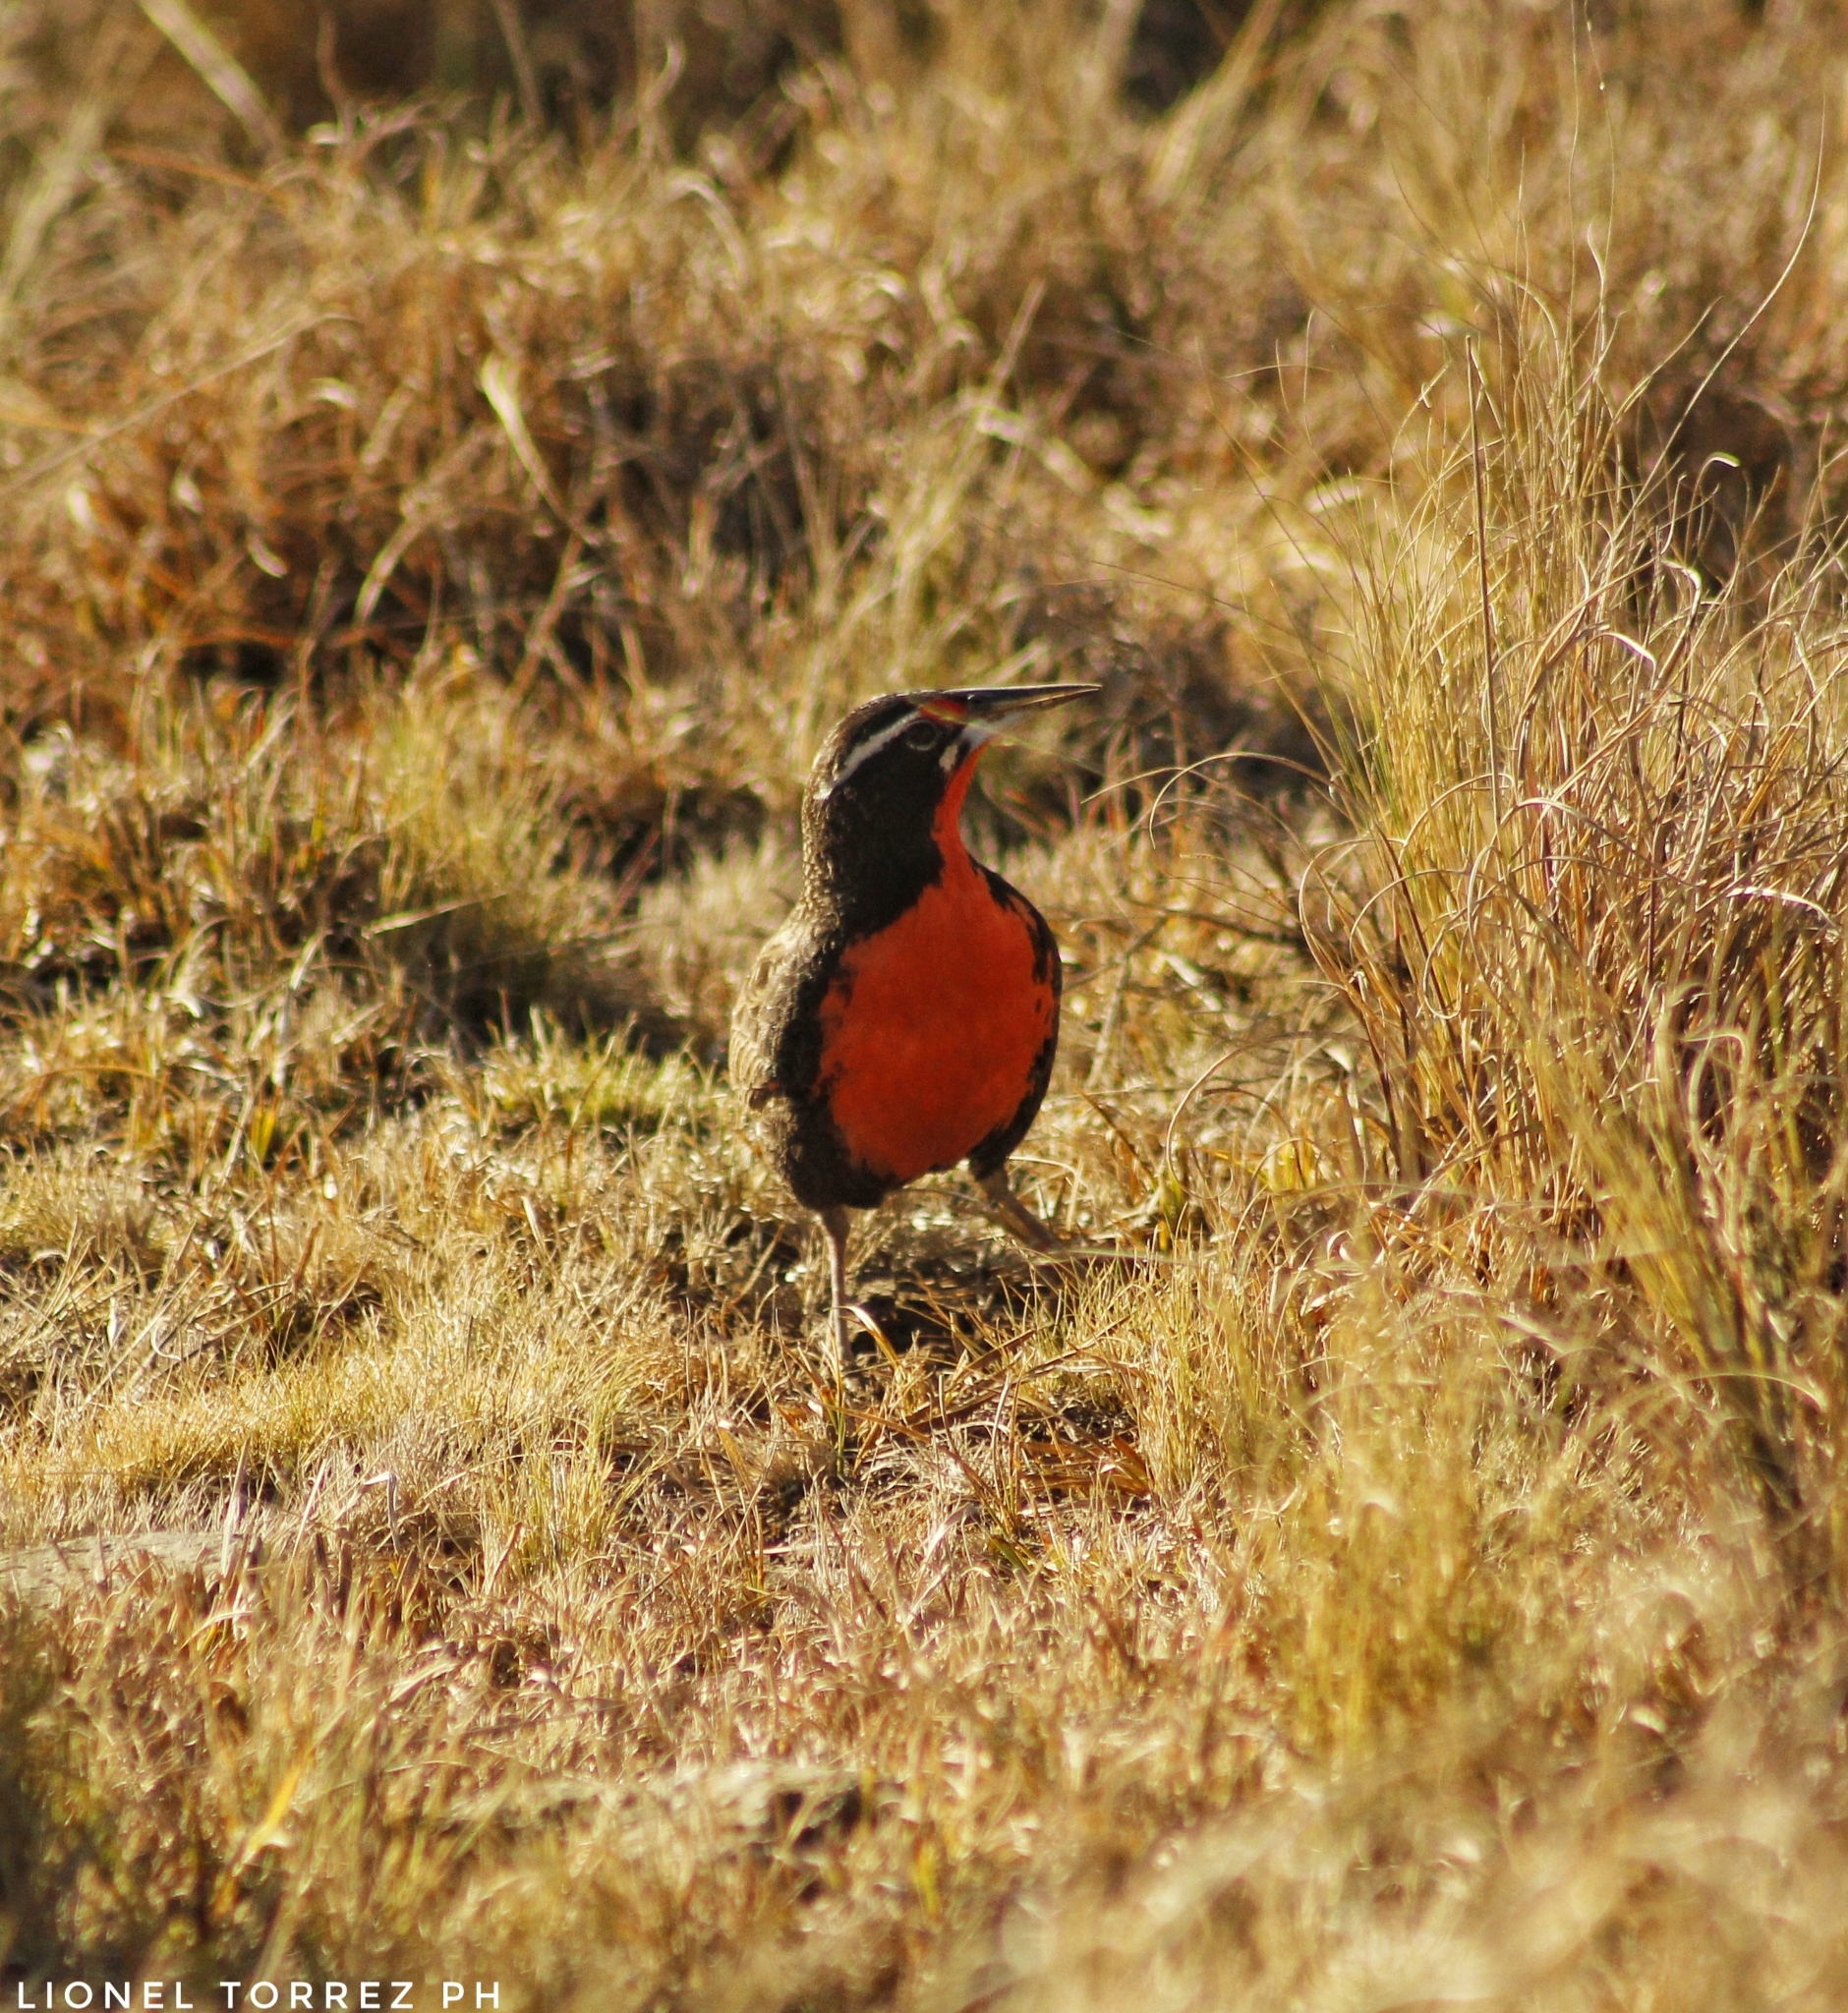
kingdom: Animalia
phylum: Chordata
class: Aves
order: Passeriformes
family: Icteridae
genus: Sturnella
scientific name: Sturnella loyca
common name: Long-tailed meadowlark
